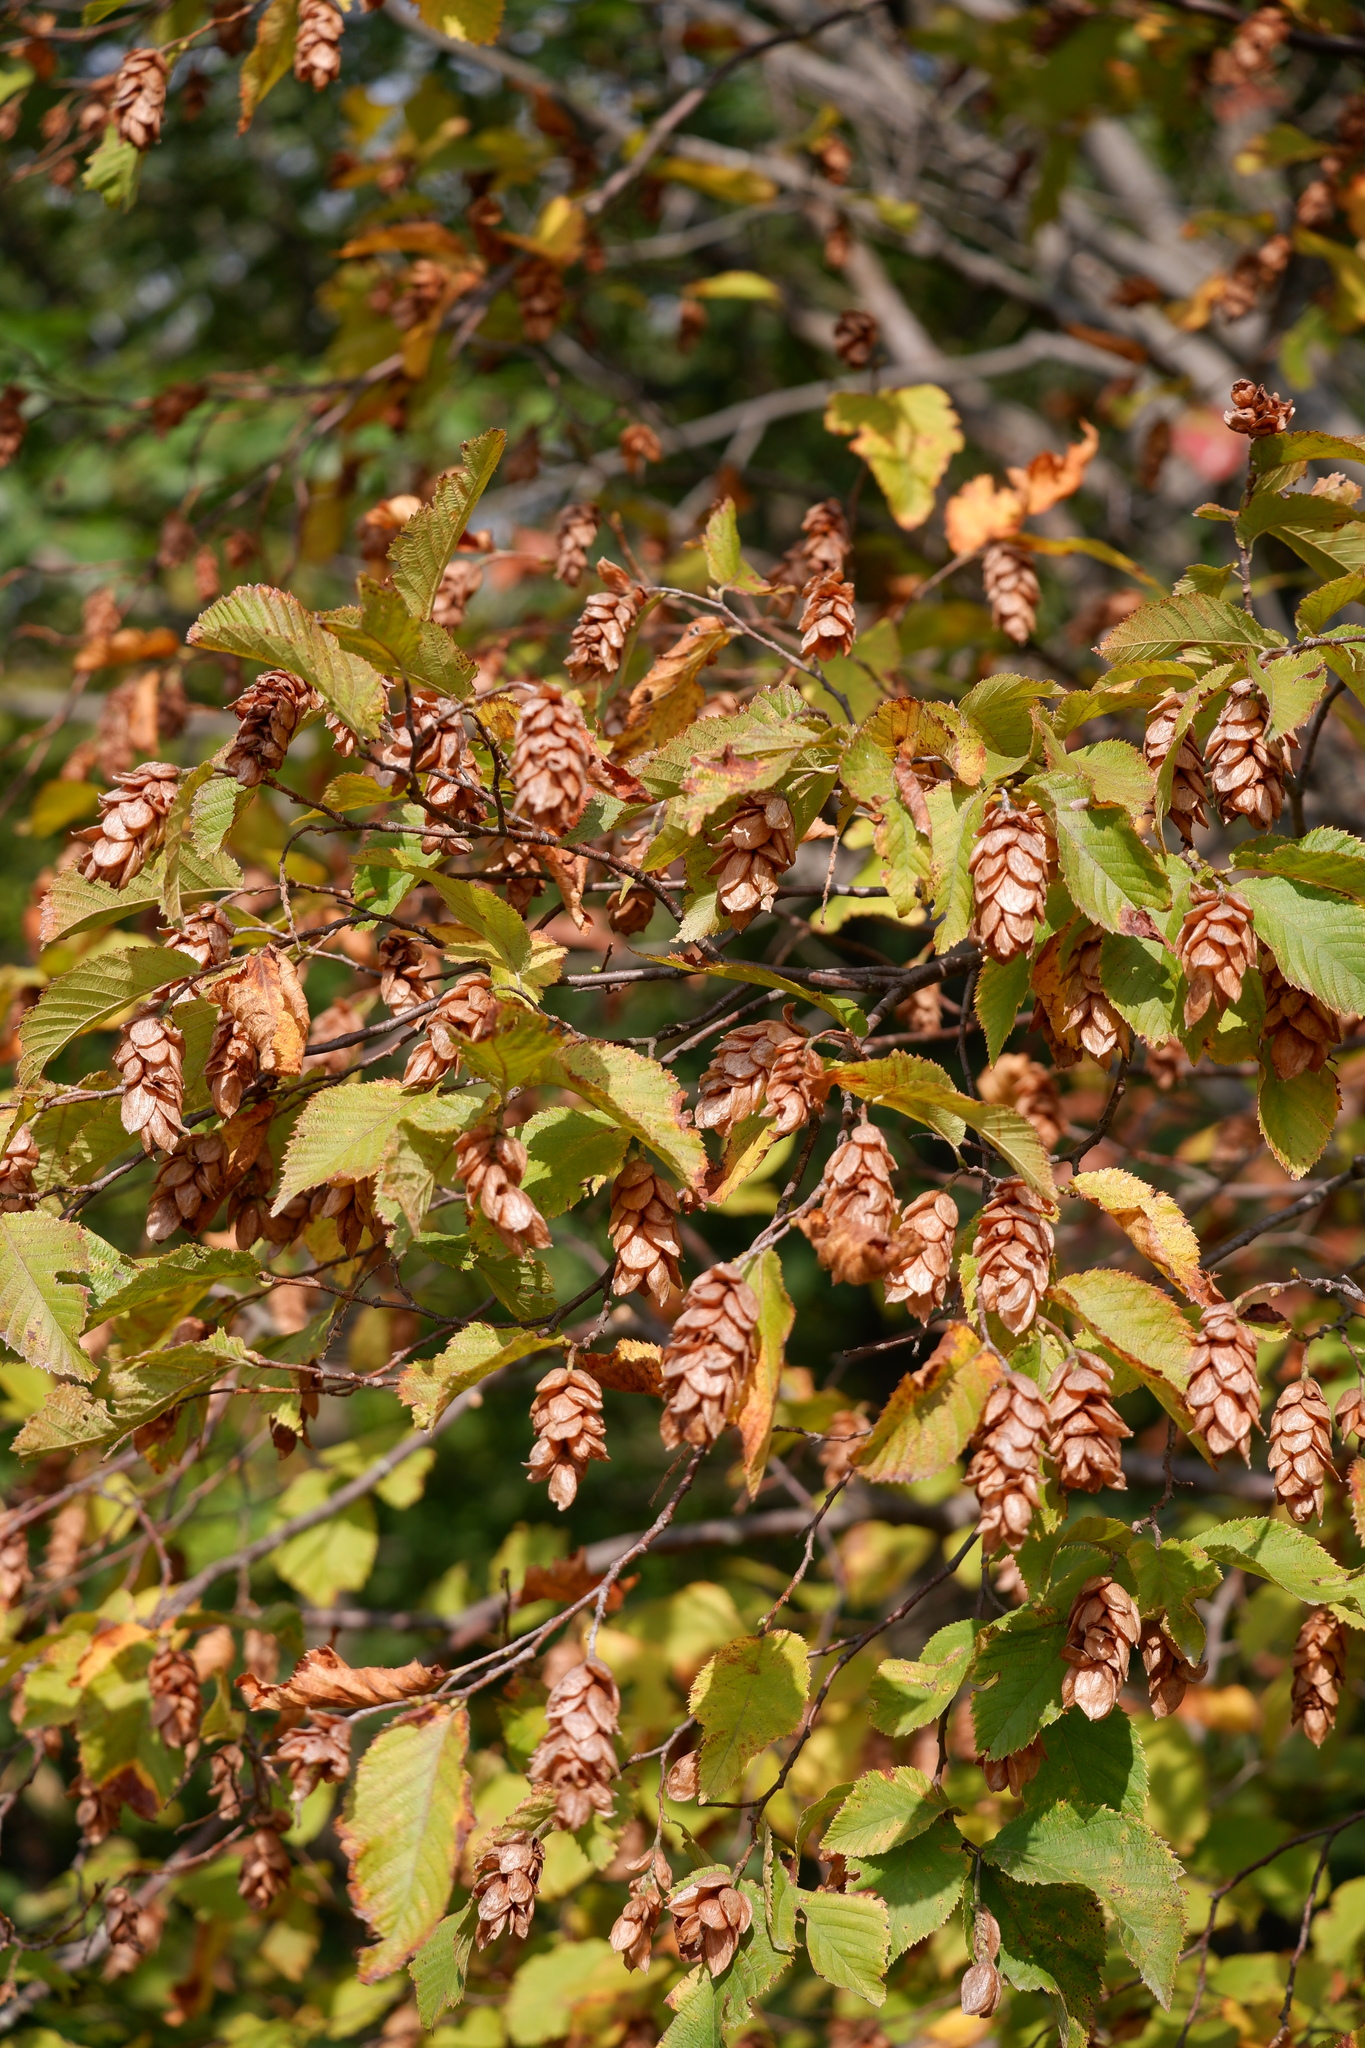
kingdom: Plantae
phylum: Tracheophyta
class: Magnoliopsida
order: Fagales
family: Betulaceae
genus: Ostrya
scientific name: Ostrya virginiana
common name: Ironwood
